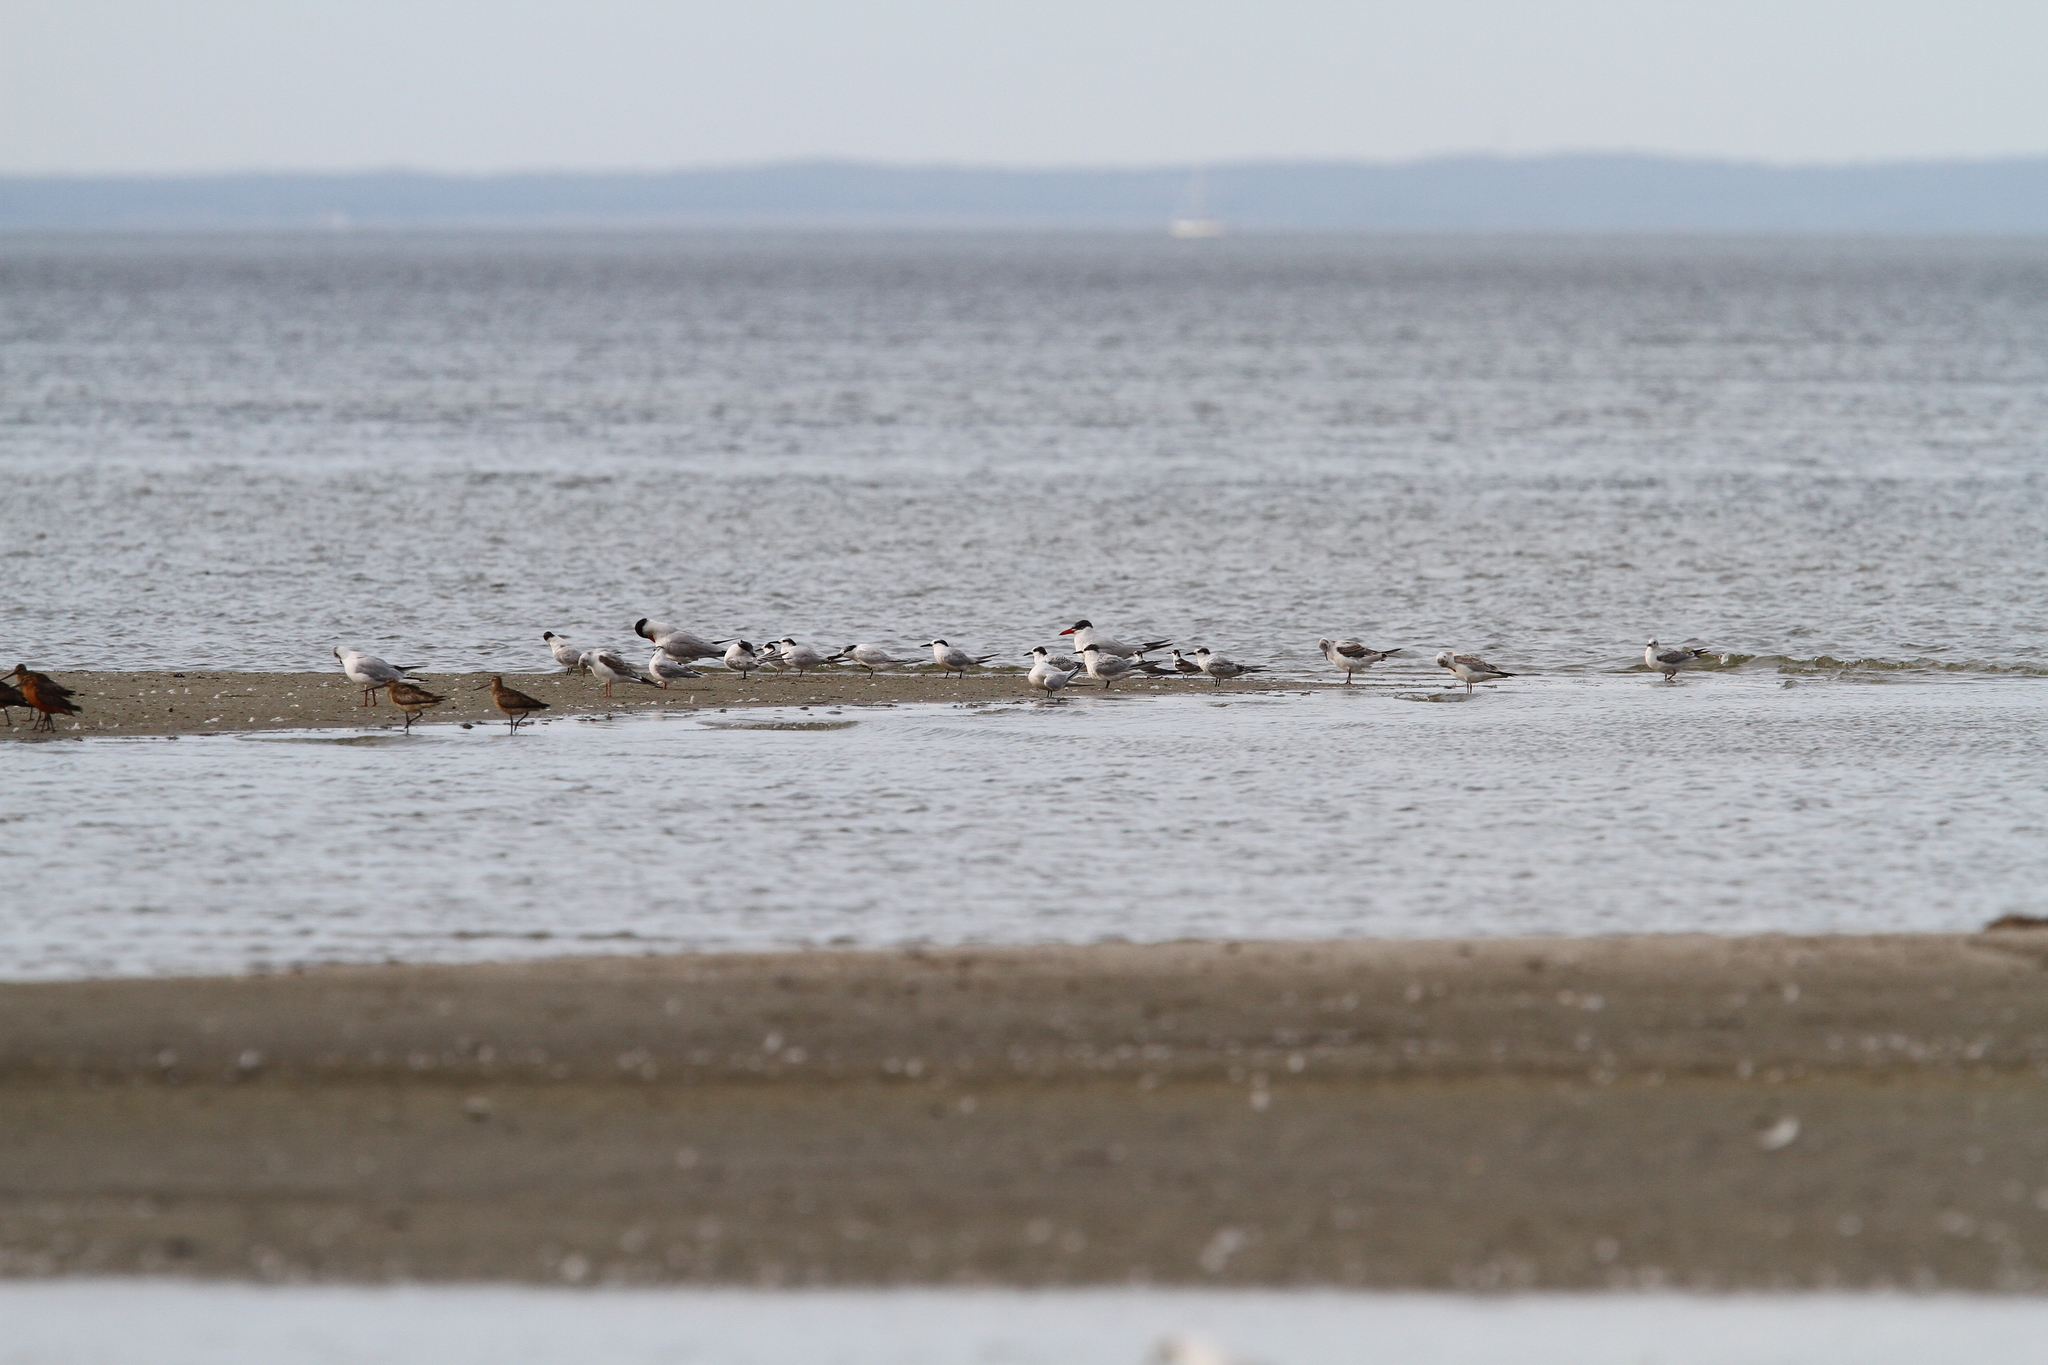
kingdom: Animalia
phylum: Chordata
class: Aves
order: Charadriiformes
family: Laridae
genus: Thalasseus
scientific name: Thalasseus sandvicensis
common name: Sandwich tern
